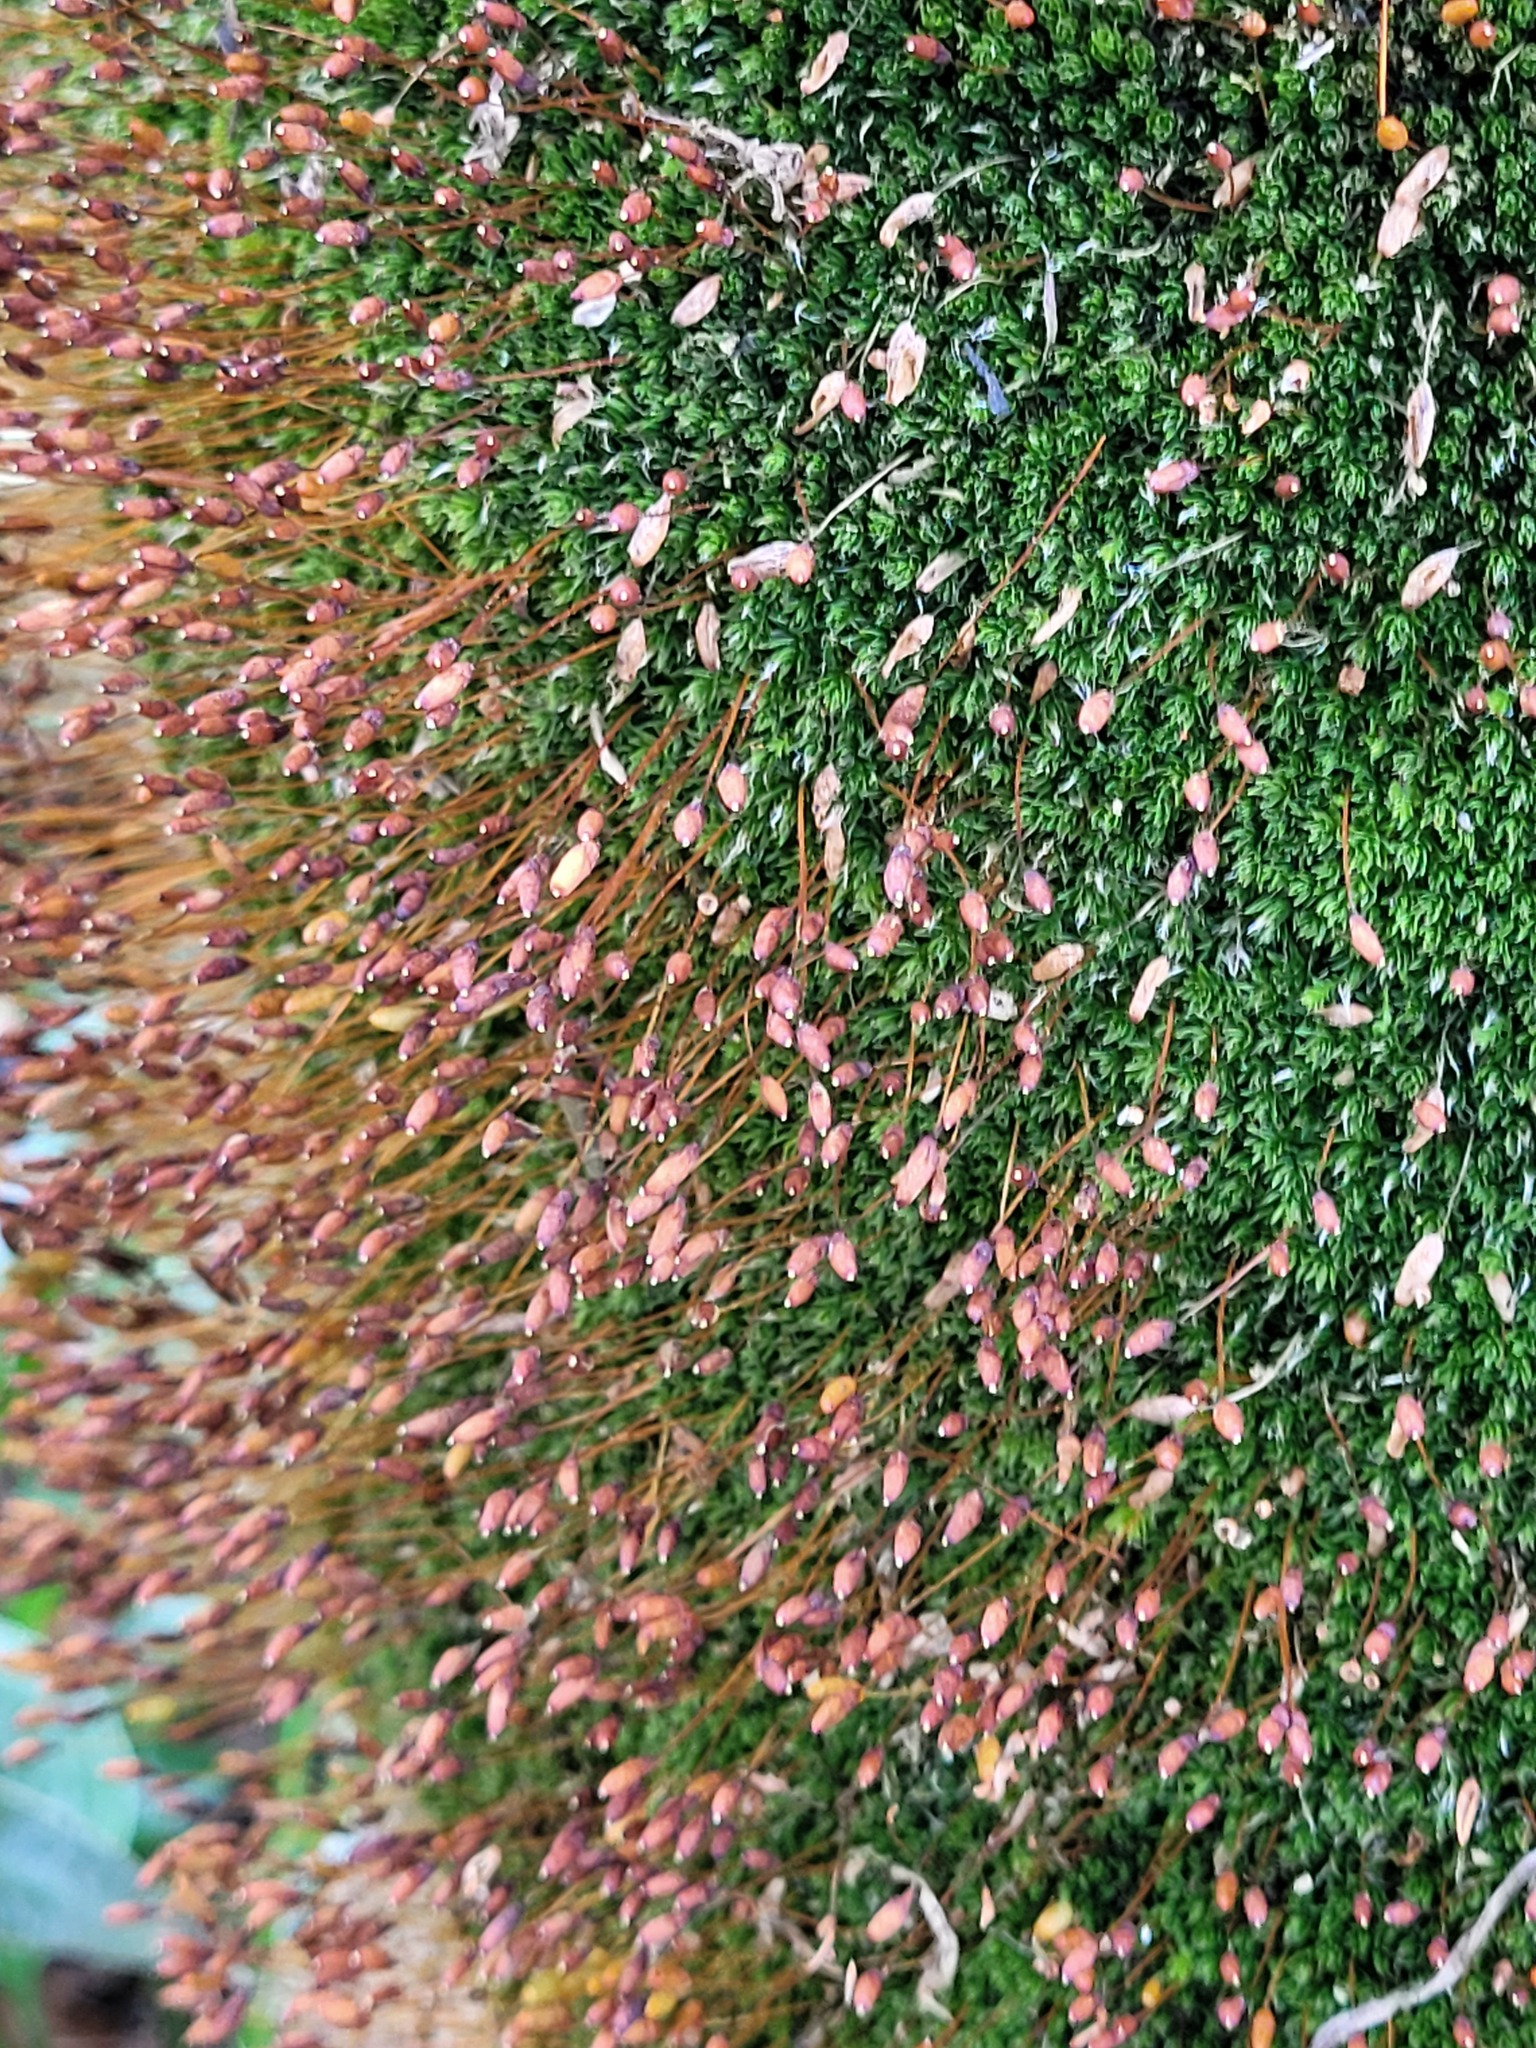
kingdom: Plantae
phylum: Bryophyta
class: Bryopsida
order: Bryales
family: Leptostomataceae
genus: Leptostomum
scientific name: Leptostomum macrocarpon
